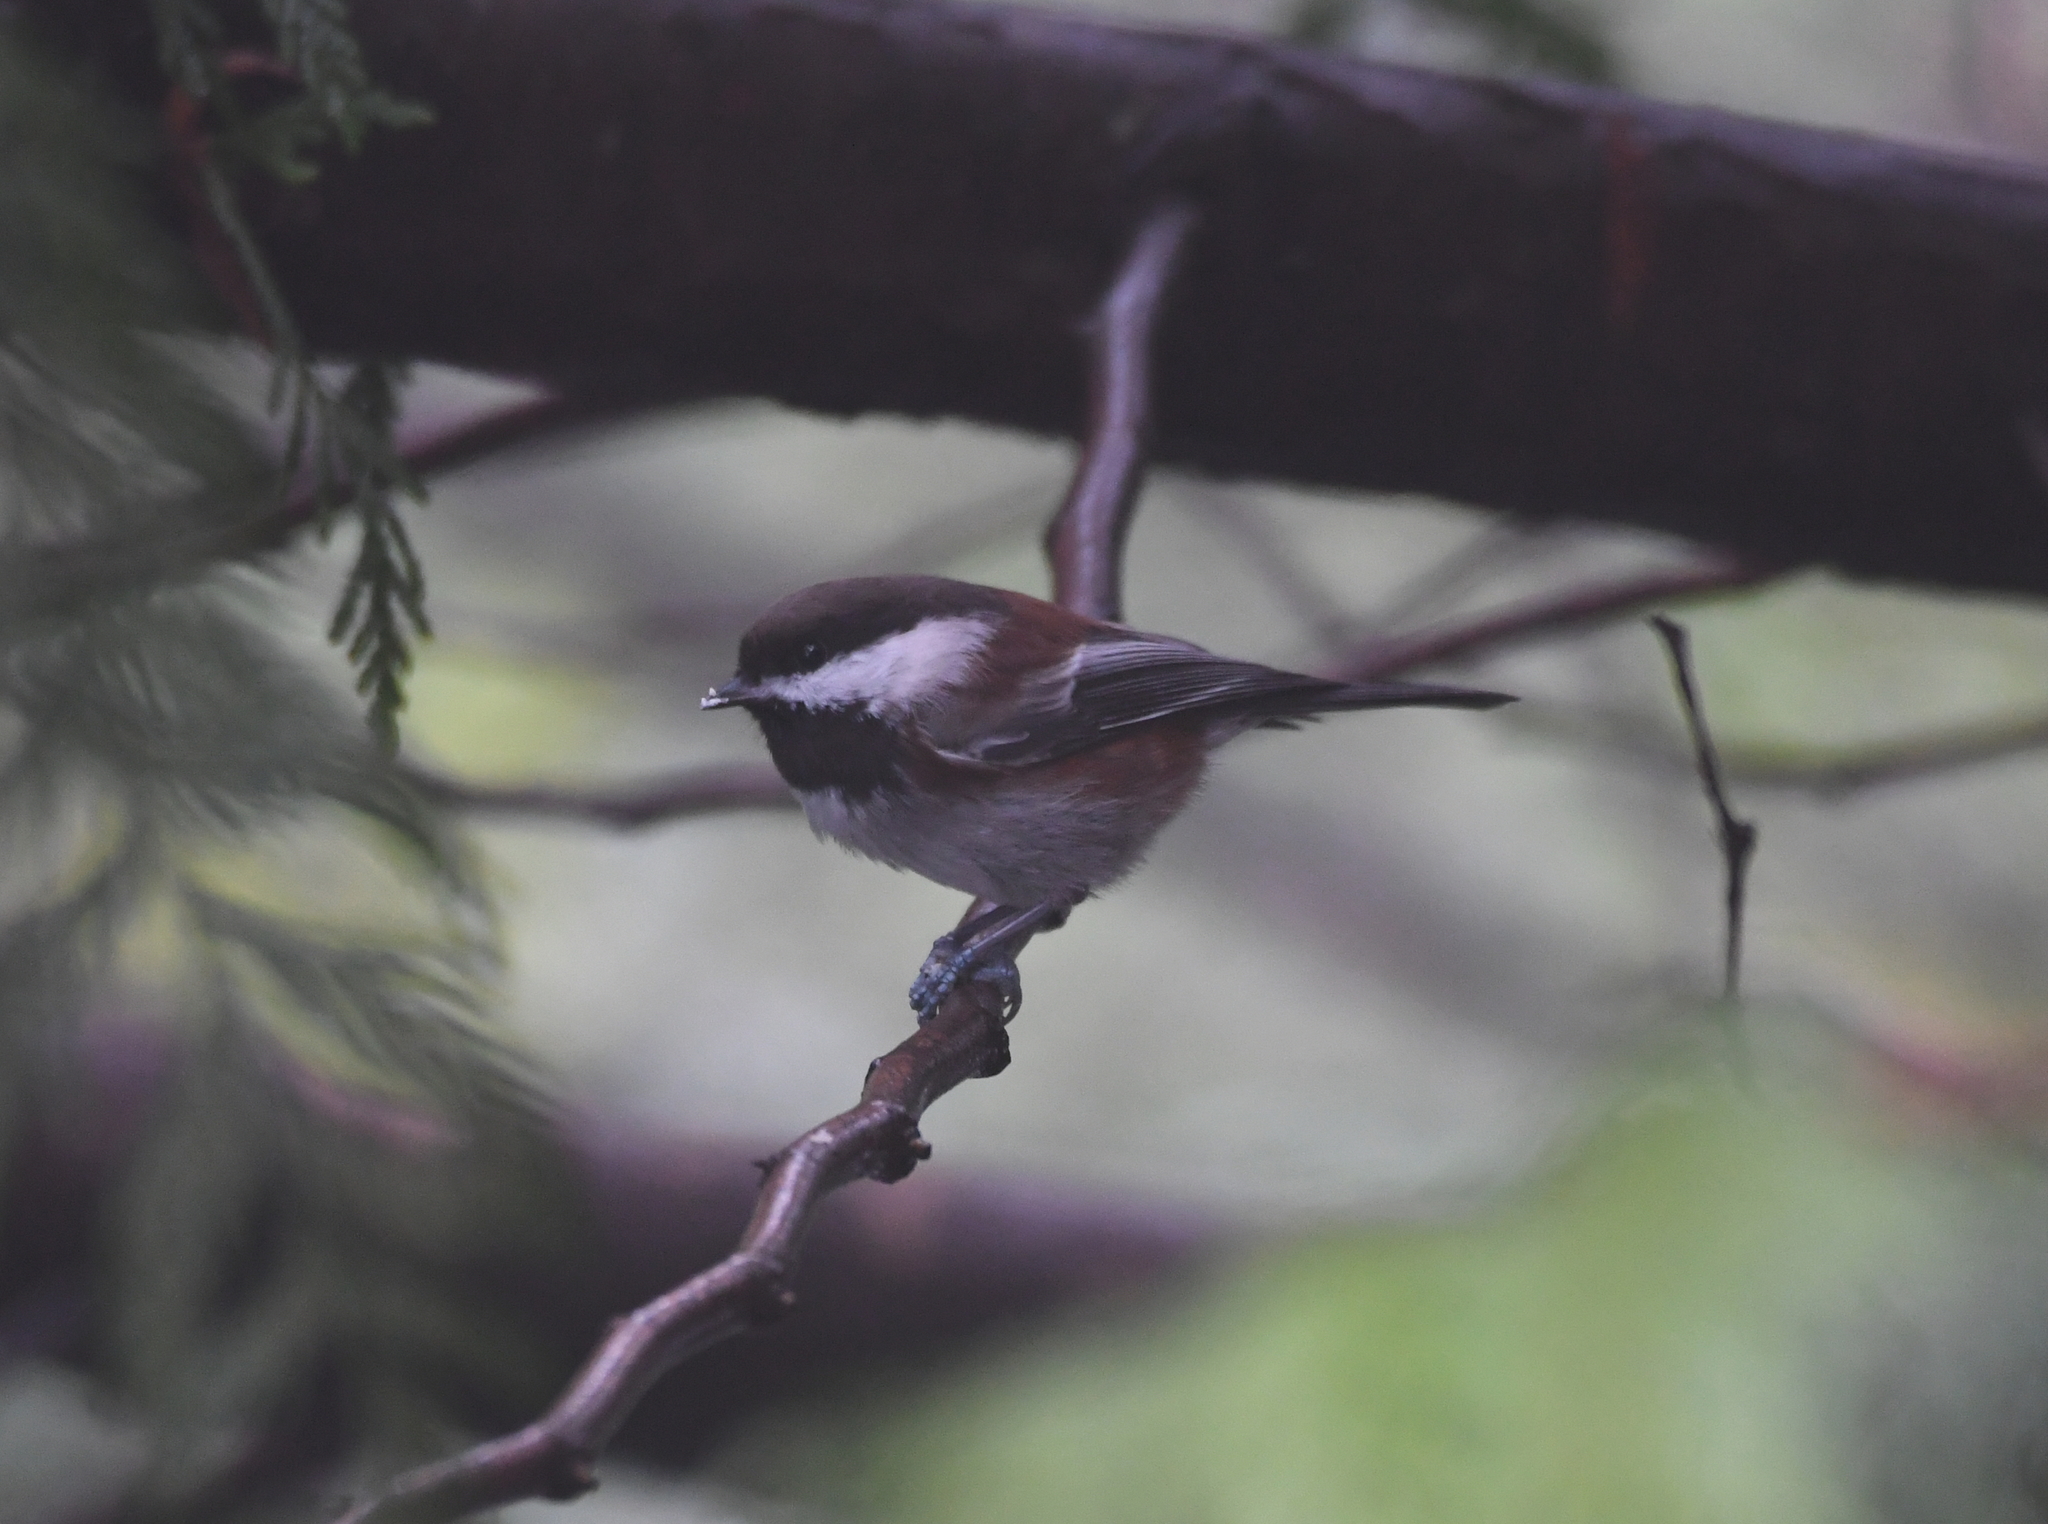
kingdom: Animalia
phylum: Chordata
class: Aves
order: Passeriformes
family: Paridae
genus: Poecile
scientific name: Poecile rufescens
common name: Chestnut-backed chickadee
